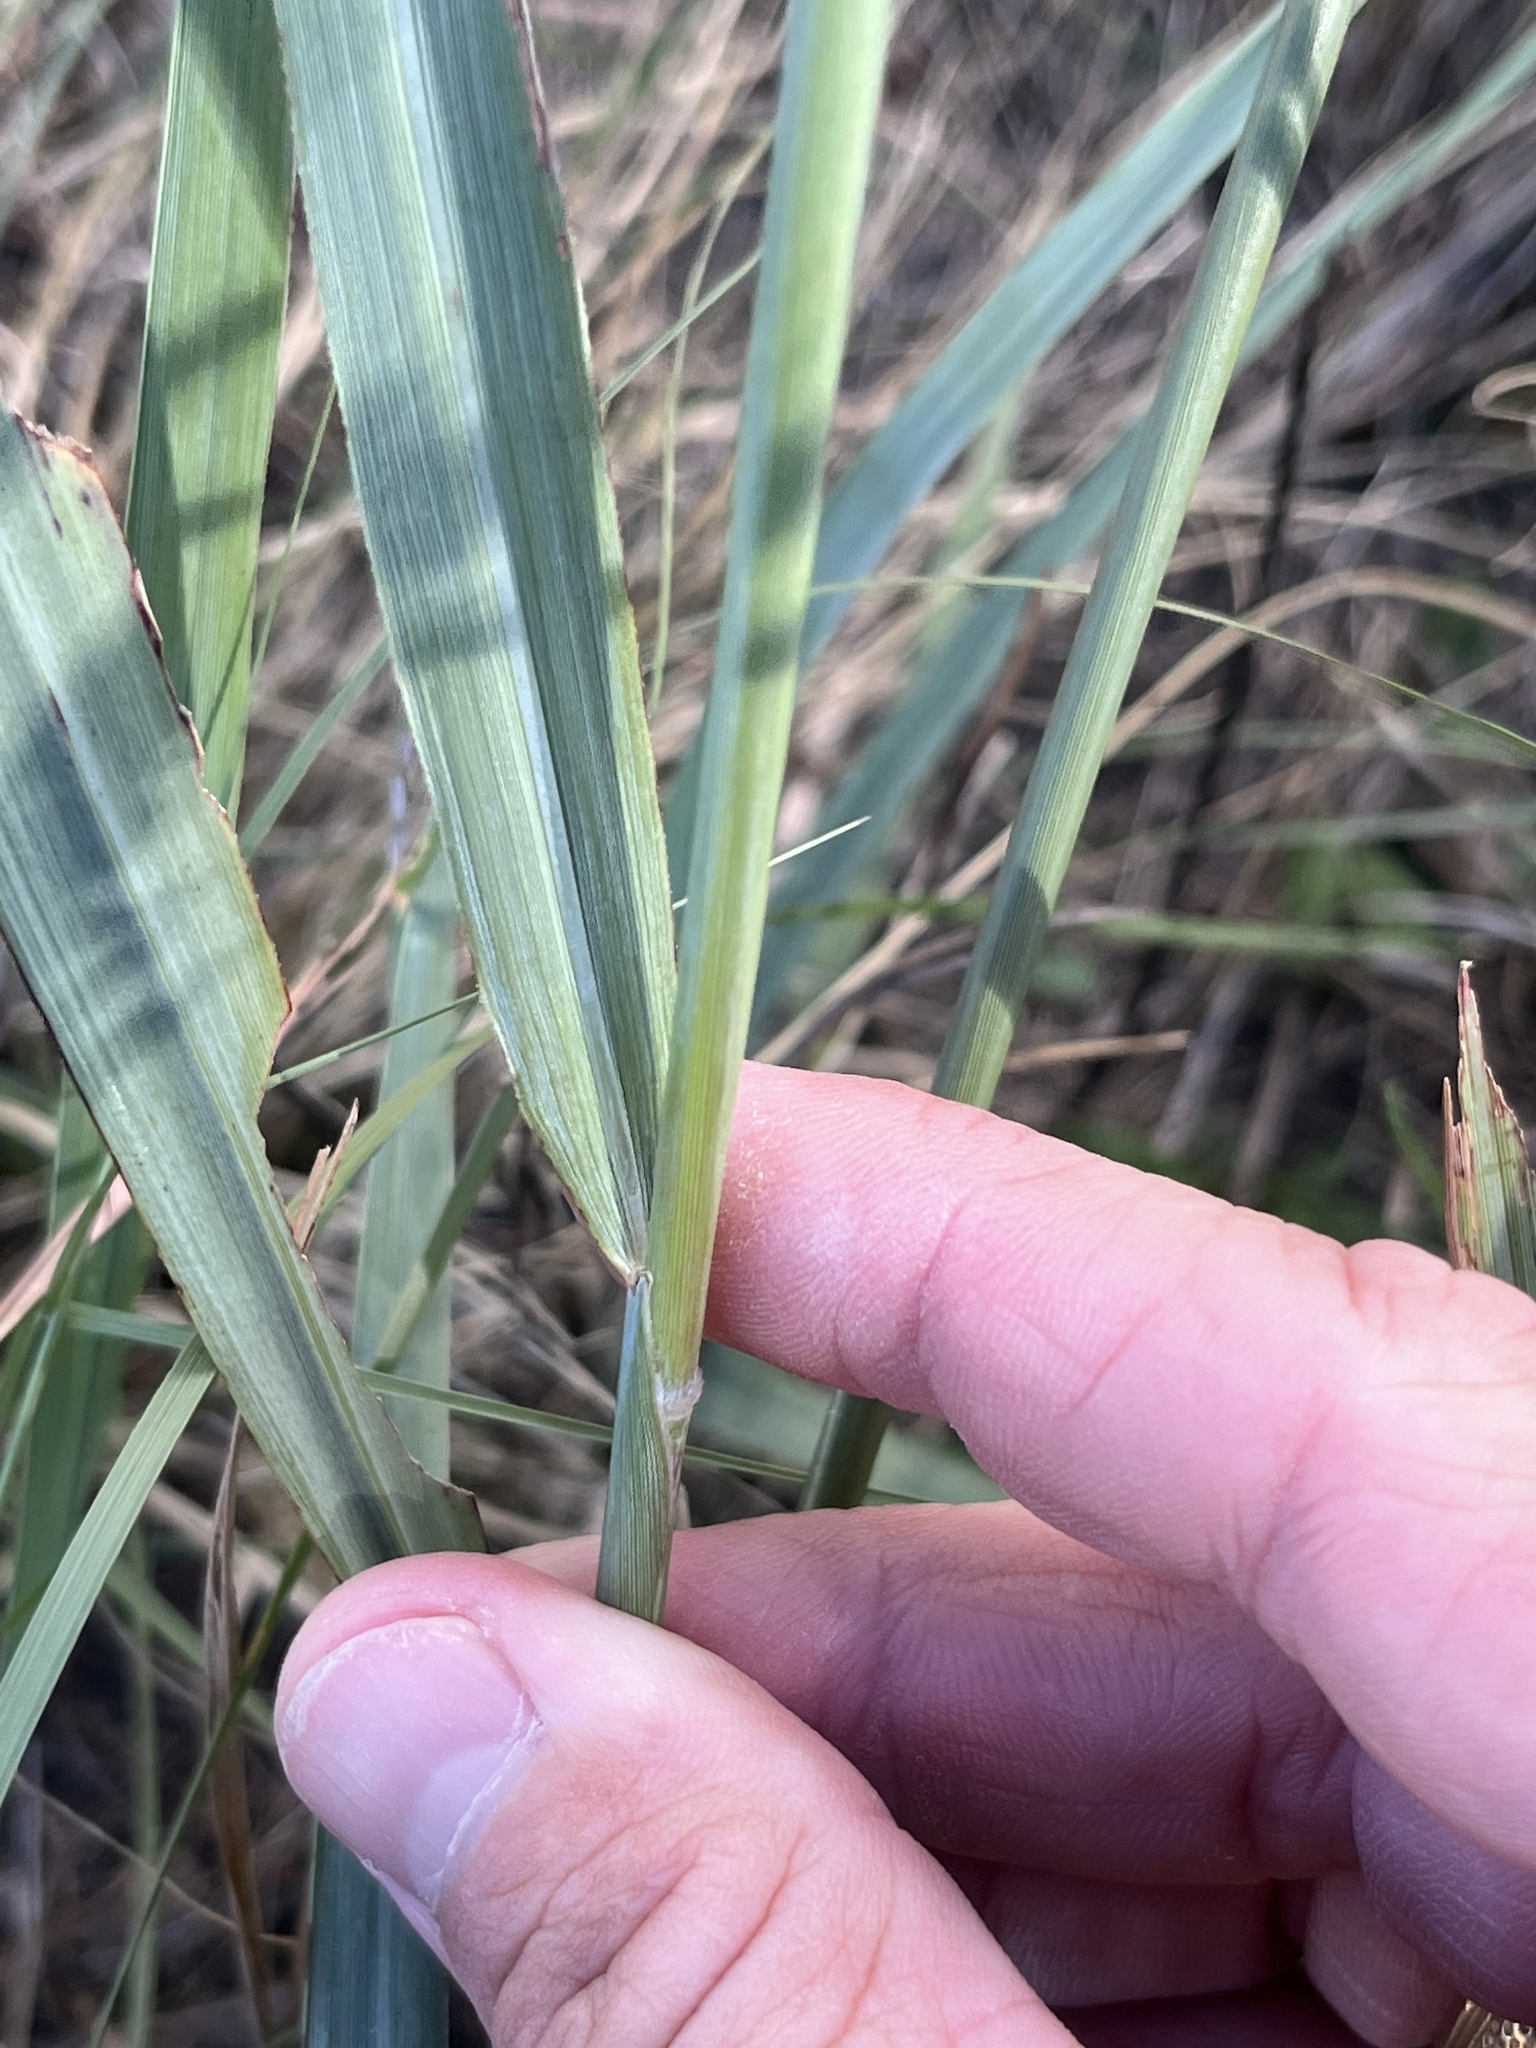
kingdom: Plantae
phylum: Tracheophyta
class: Liliopsida
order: Poales
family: Poaceae
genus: Sorghastrum
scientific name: Sorghastrum nutans
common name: Indian grass
